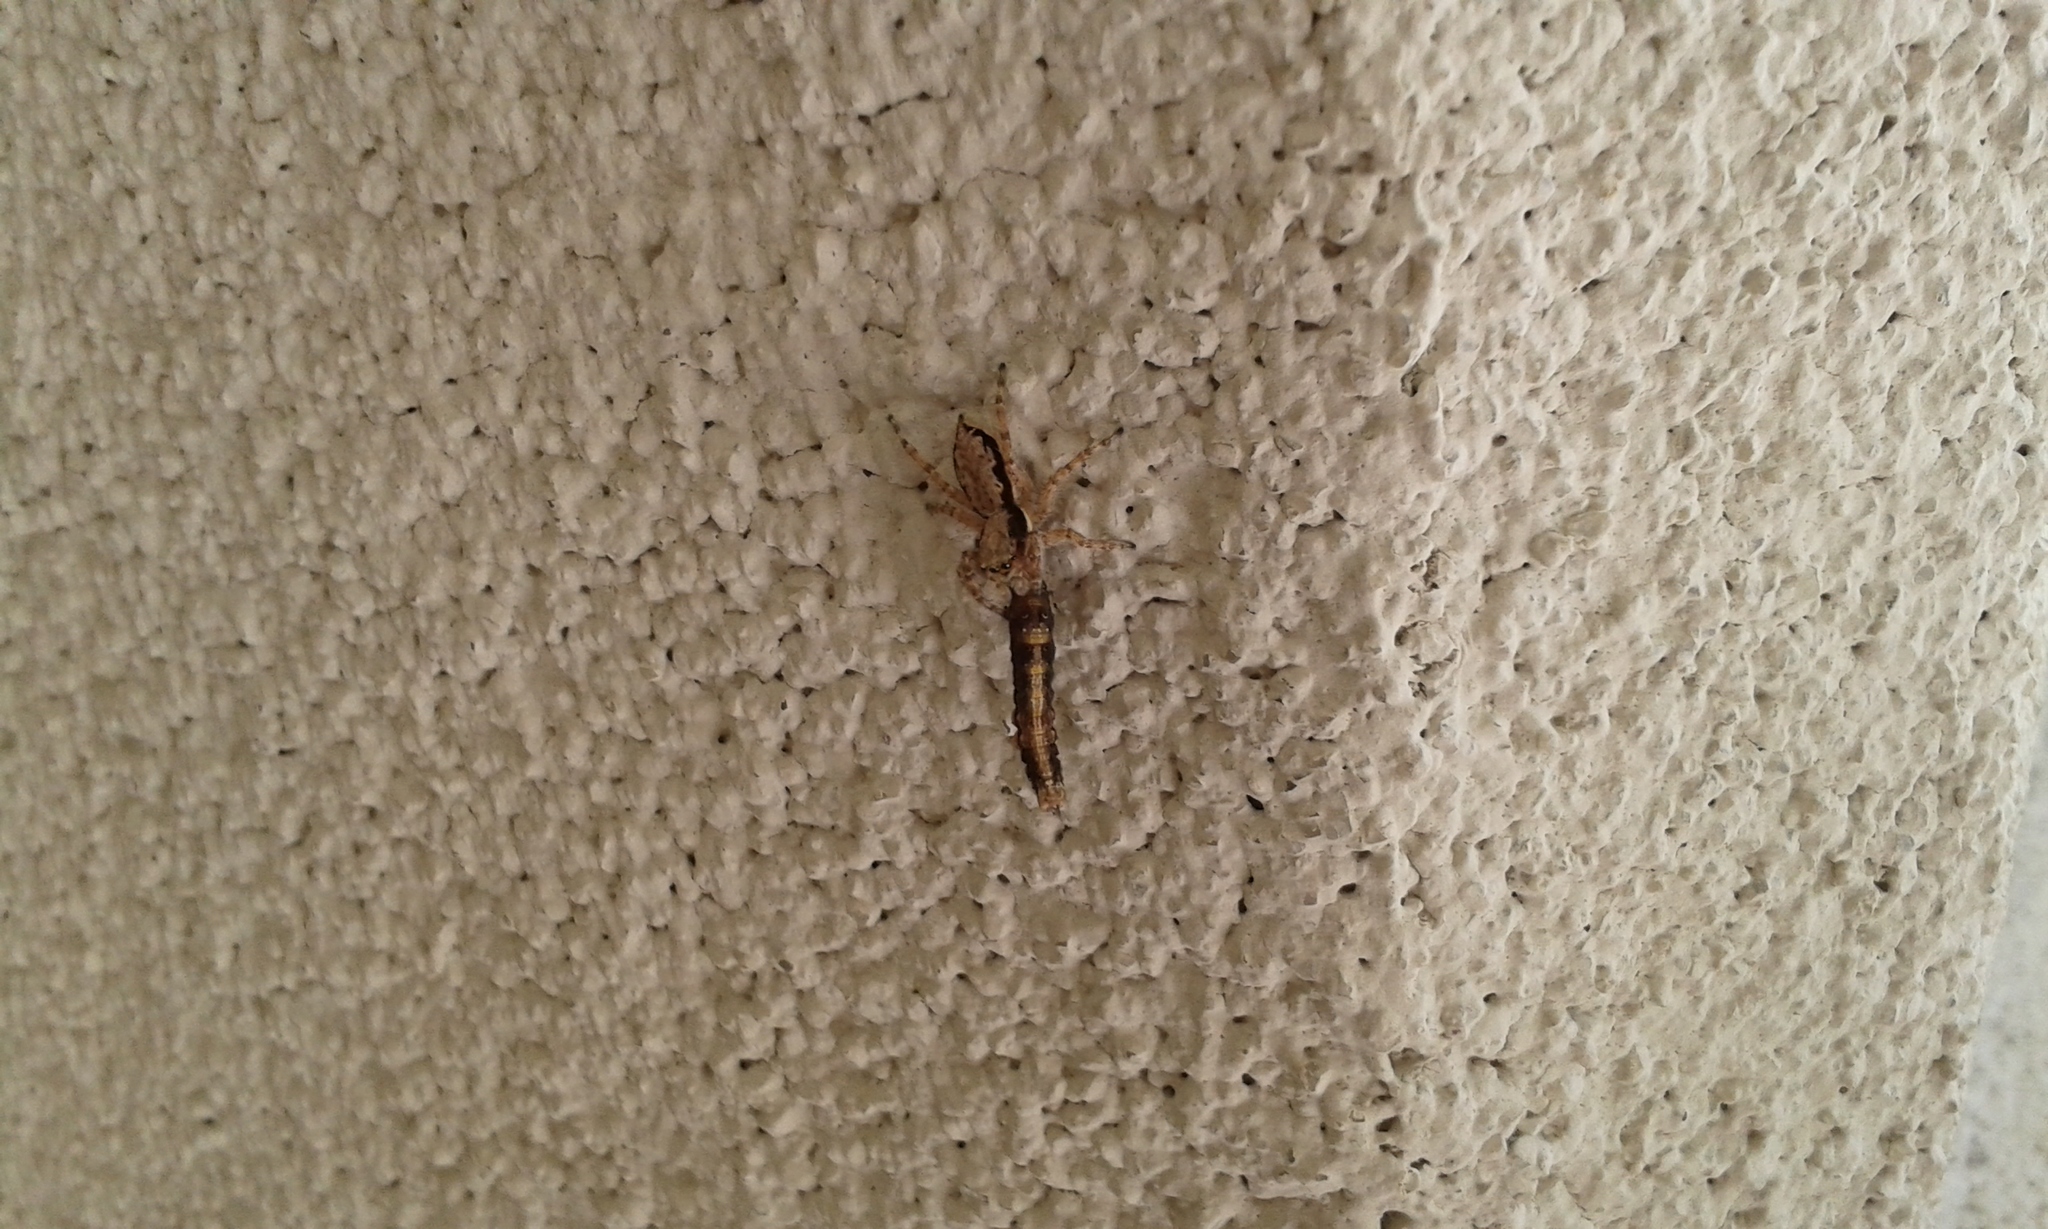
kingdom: Animalia
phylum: Arthropoda
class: Arachnida
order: Araneae
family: Salticidae
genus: Menemerus
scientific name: Menemerus bivittatus
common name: Gray wall jumper
